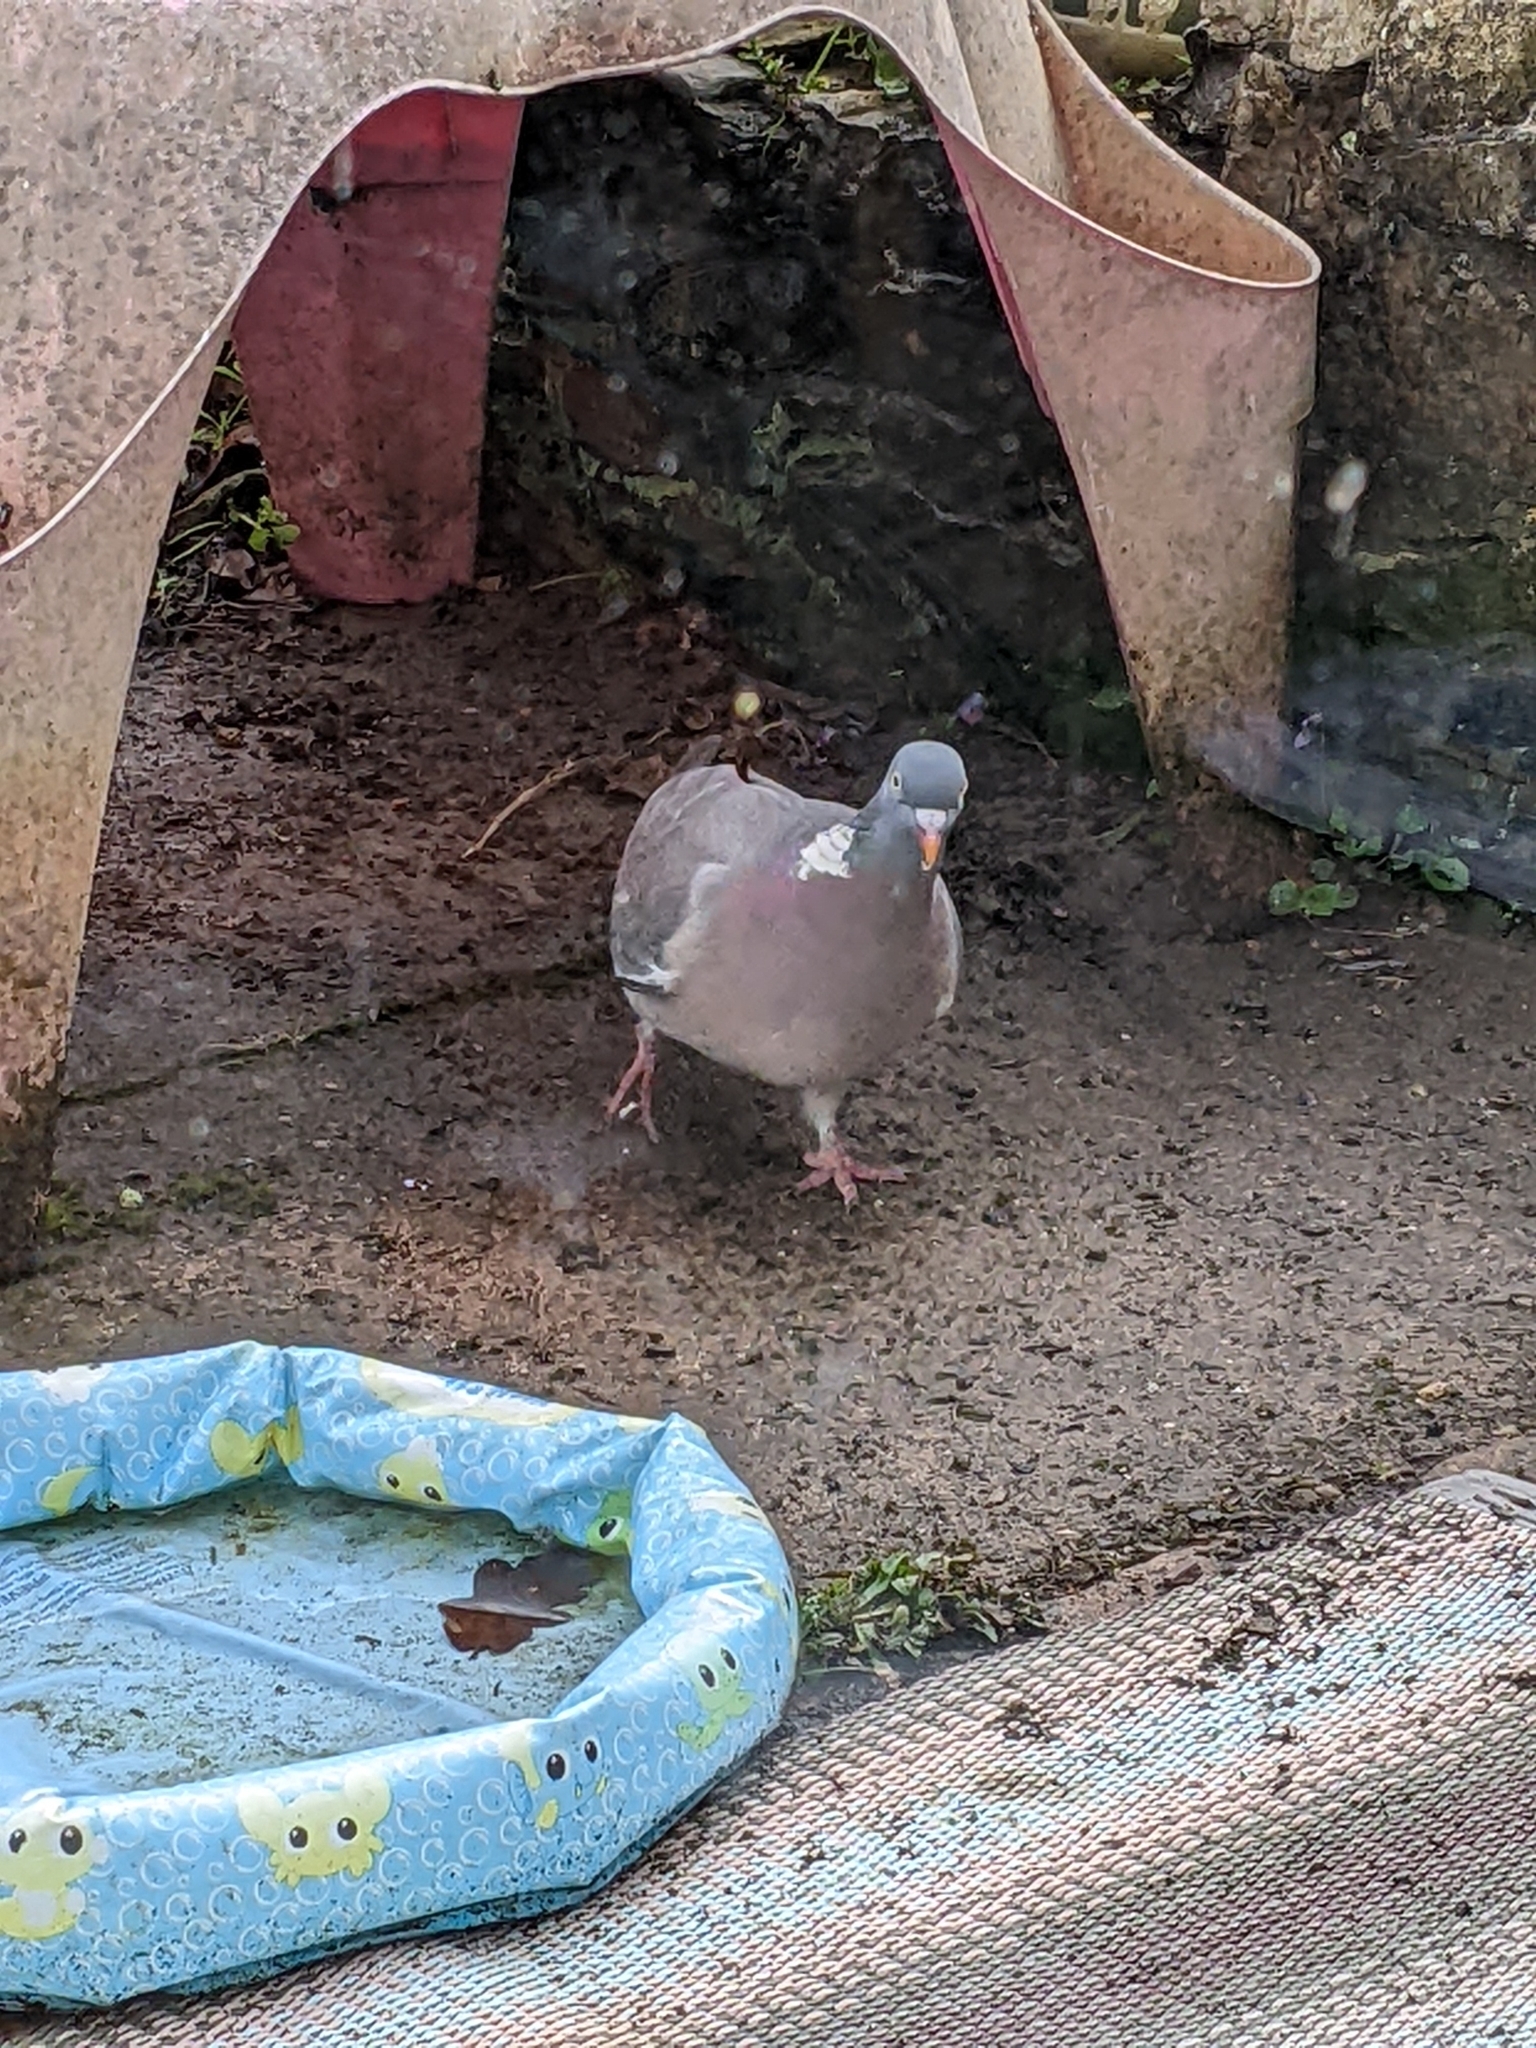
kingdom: Animalia
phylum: Chordata
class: Aves
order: Columbiformes
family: Columbidae
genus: Columba
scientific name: Columba palumbus
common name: Common wood pigeon
